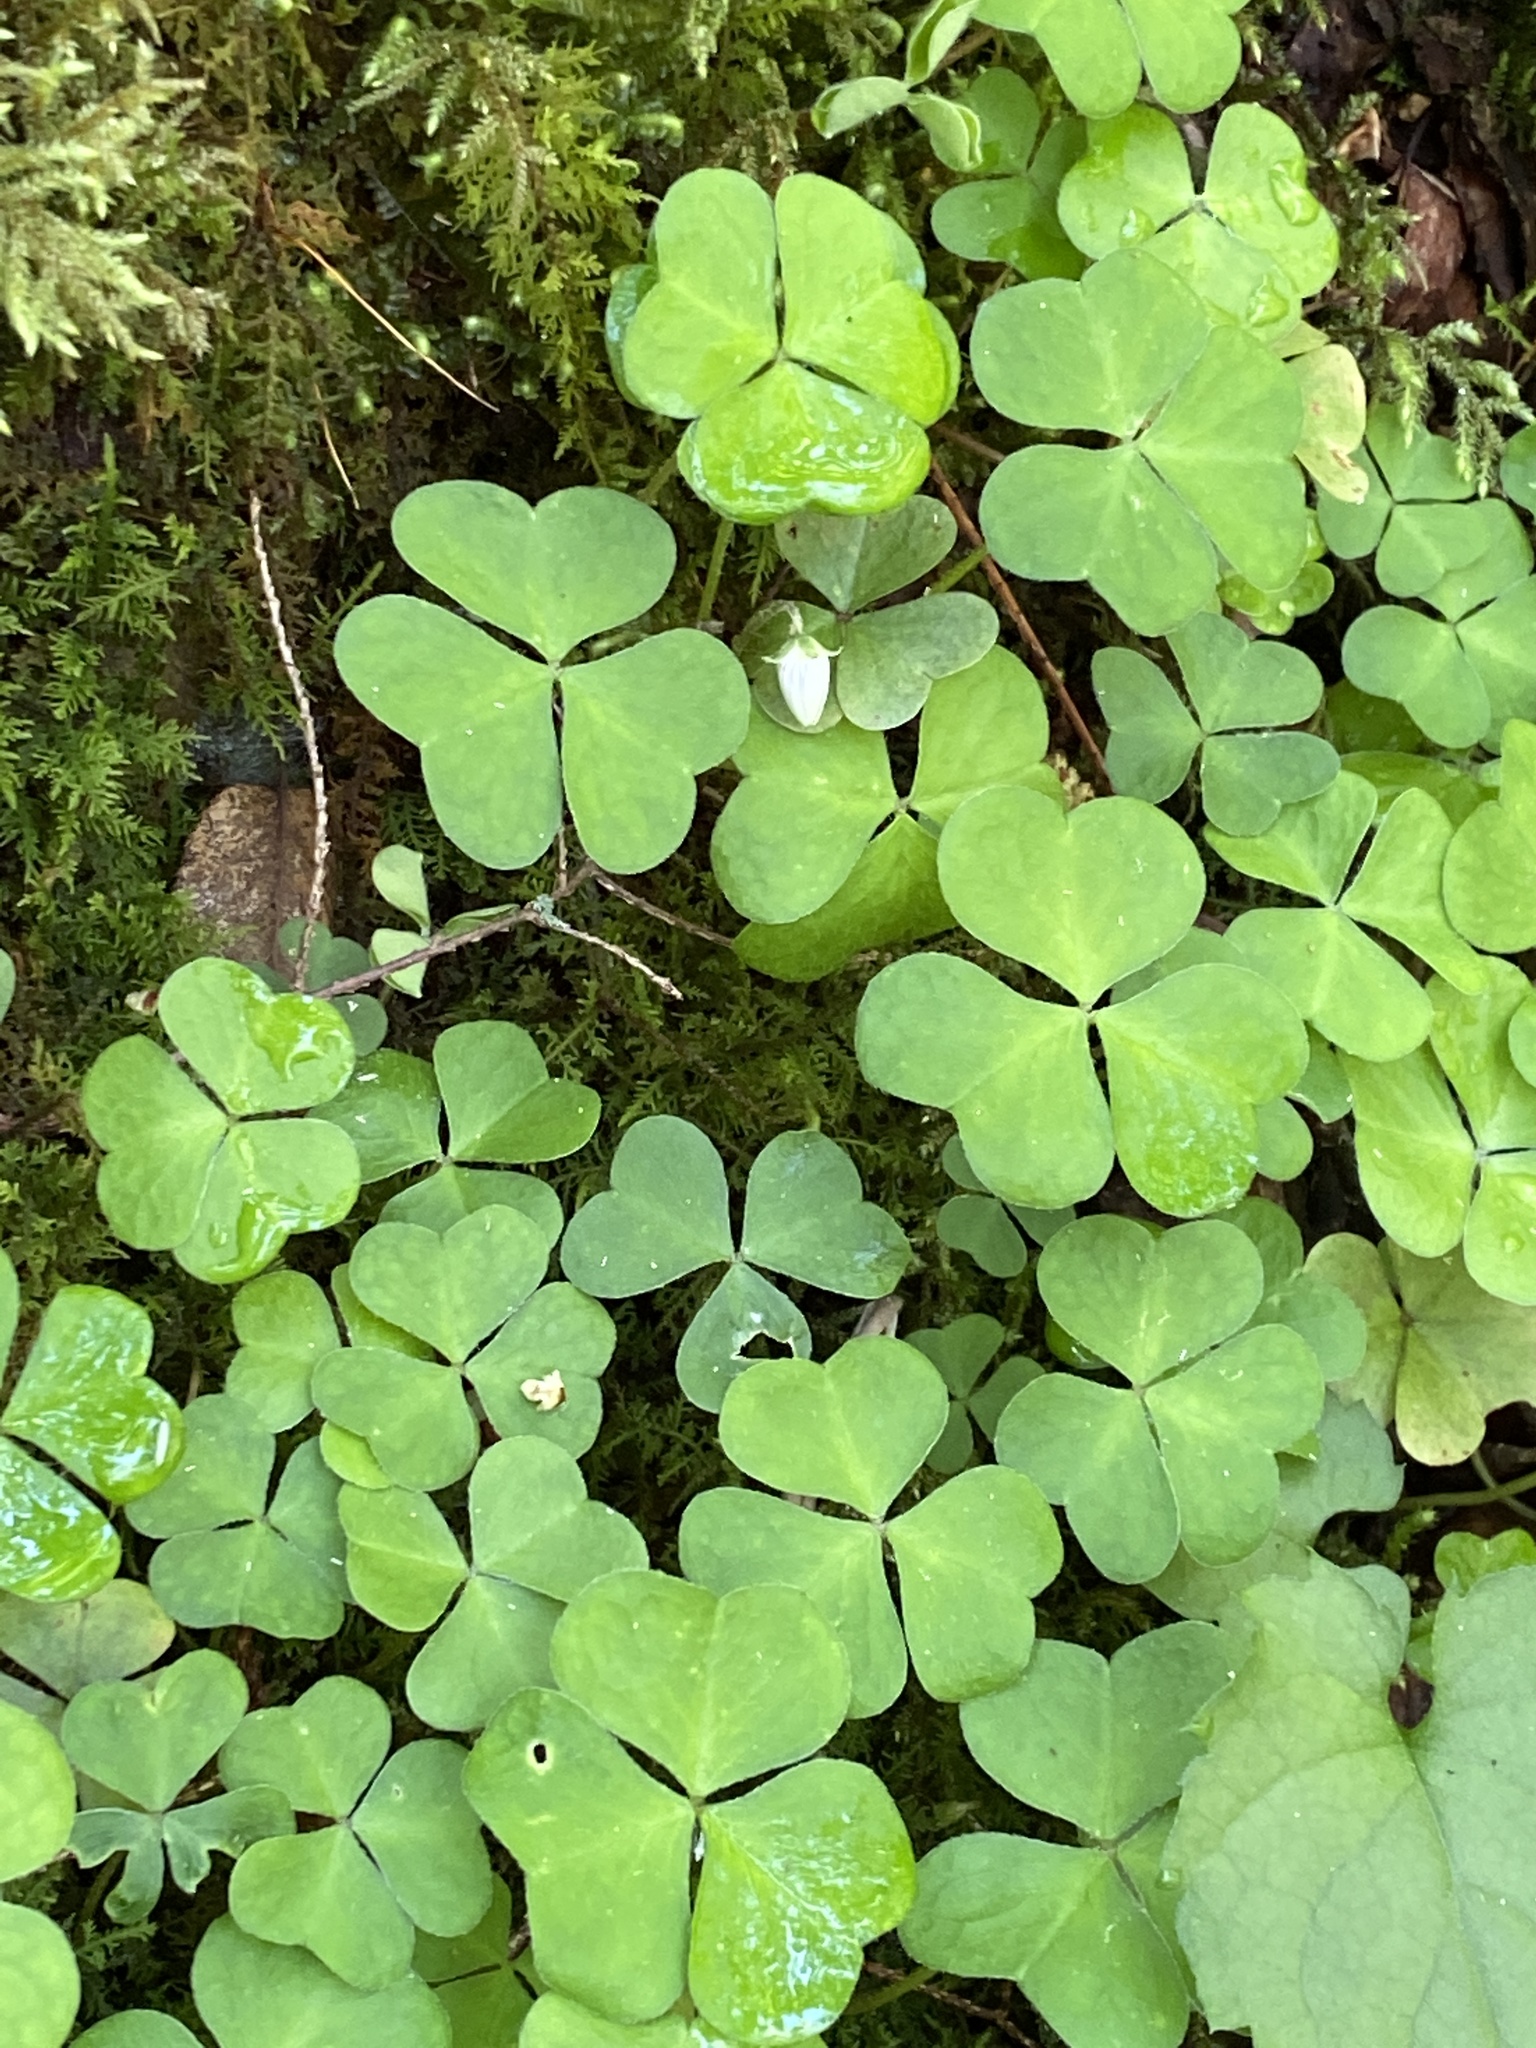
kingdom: Plantae
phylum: Tracheophyta
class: Magnoliopsida
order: Oxalidales
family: Oxalidaceae
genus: Oxalis
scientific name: Oxalis montana
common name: American wood-sorrel
